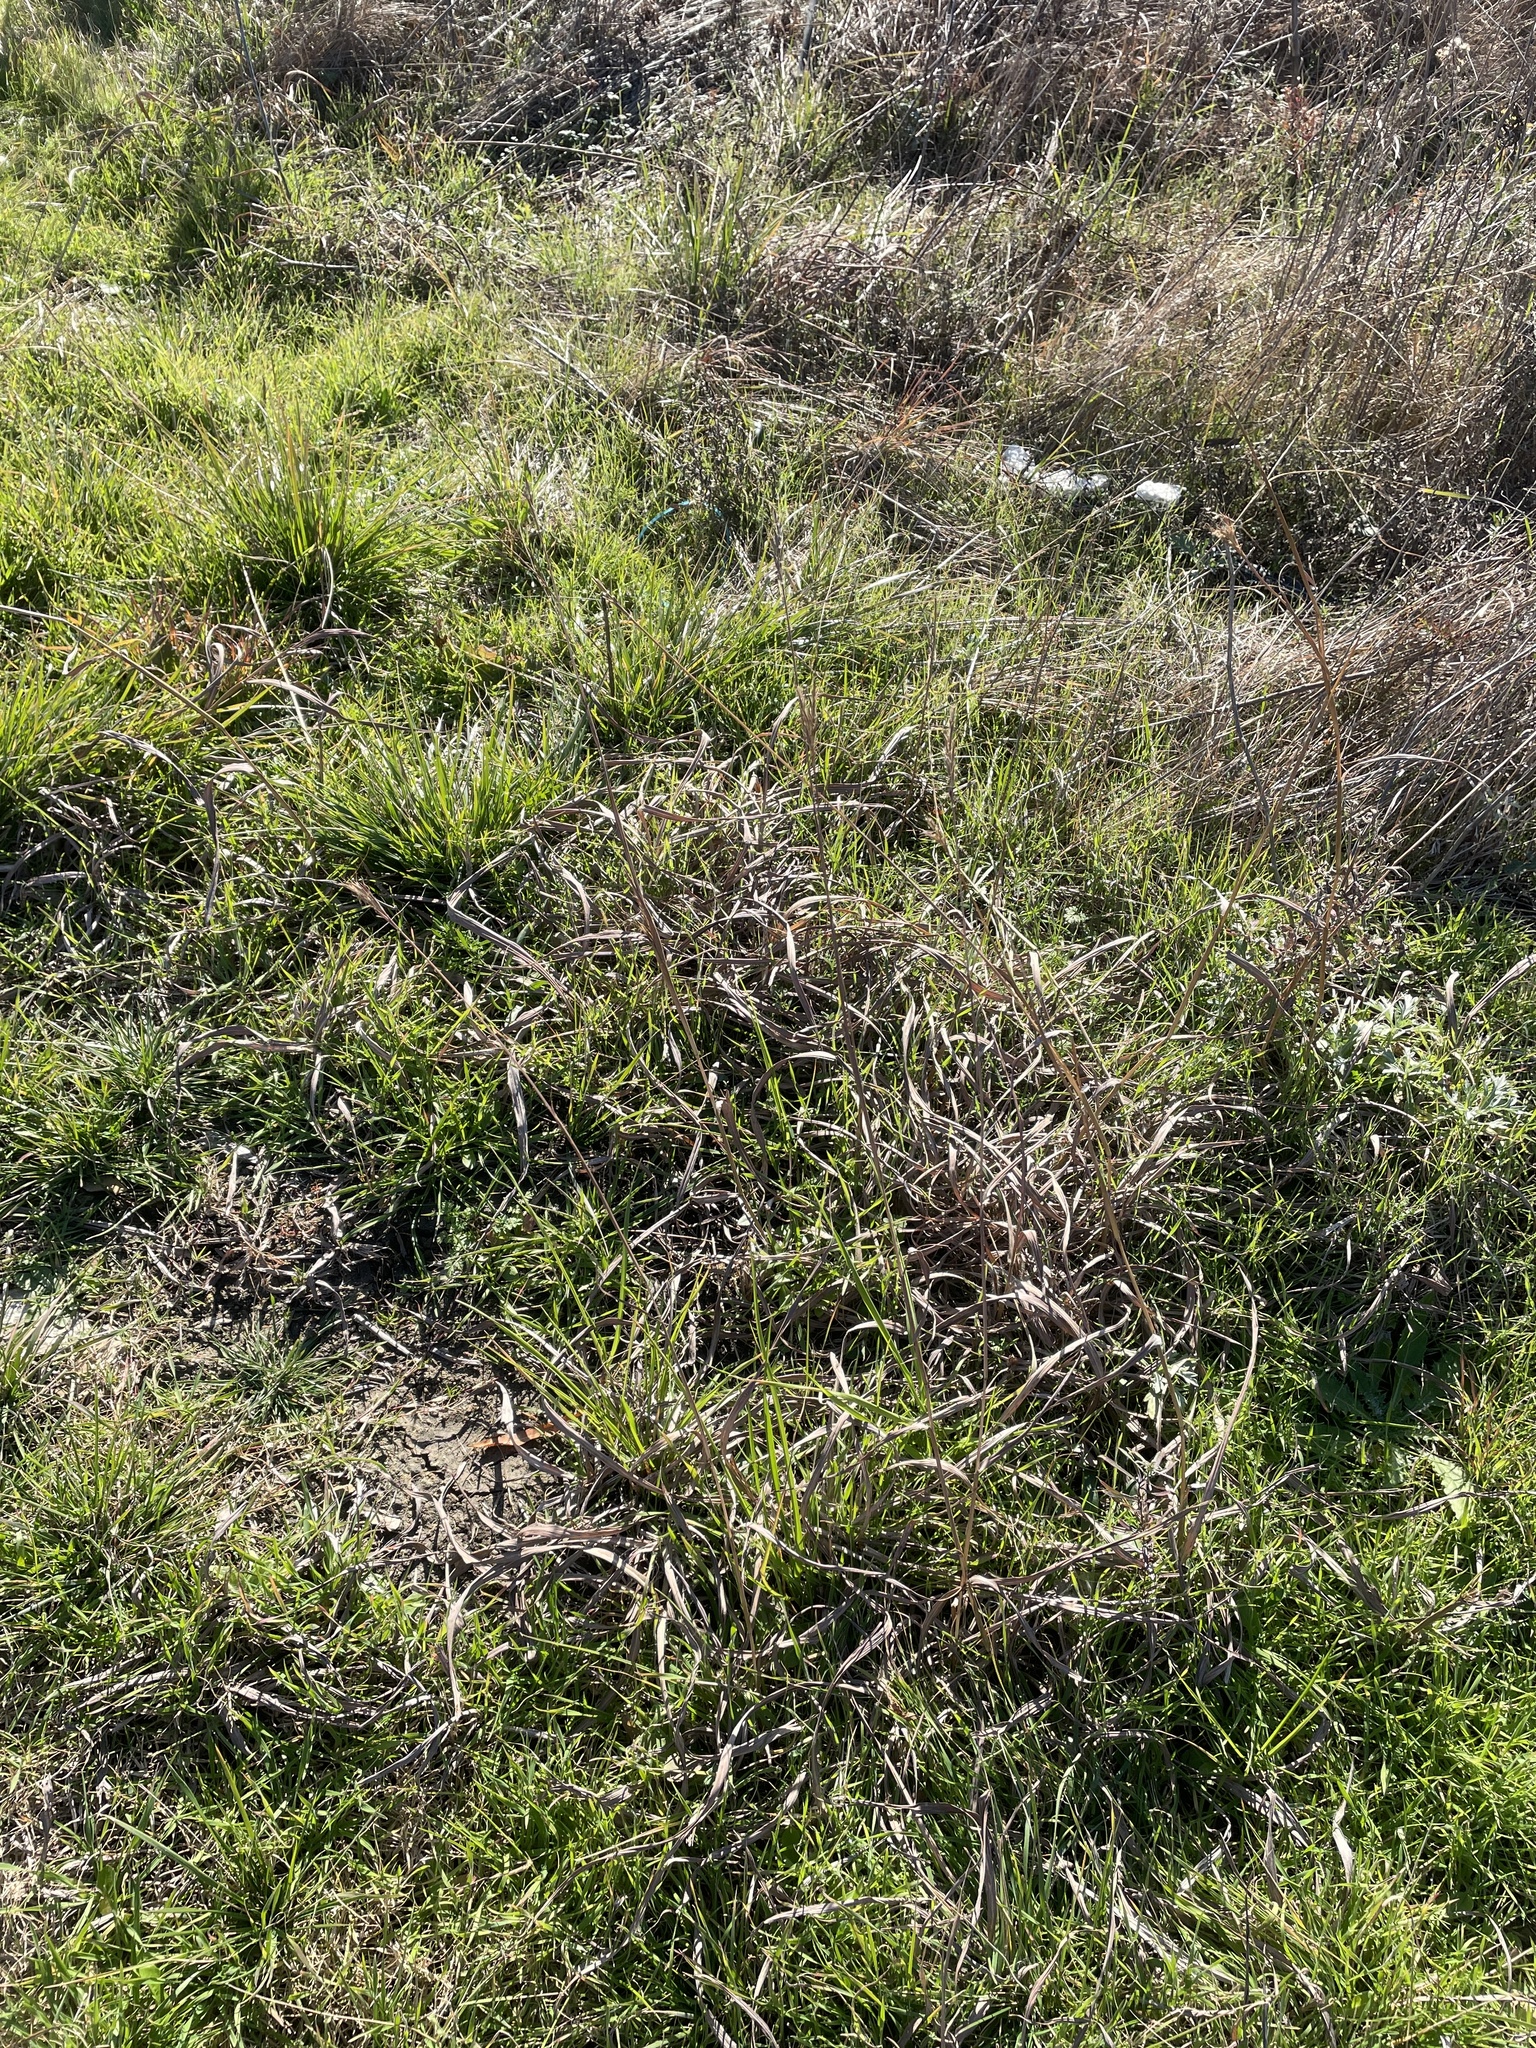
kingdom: Plantae
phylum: Tracheophyta
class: Liliopsida
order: Poales
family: Poaceae
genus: Andropogon
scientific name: Andropogon gerardi
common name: Big bluestem
